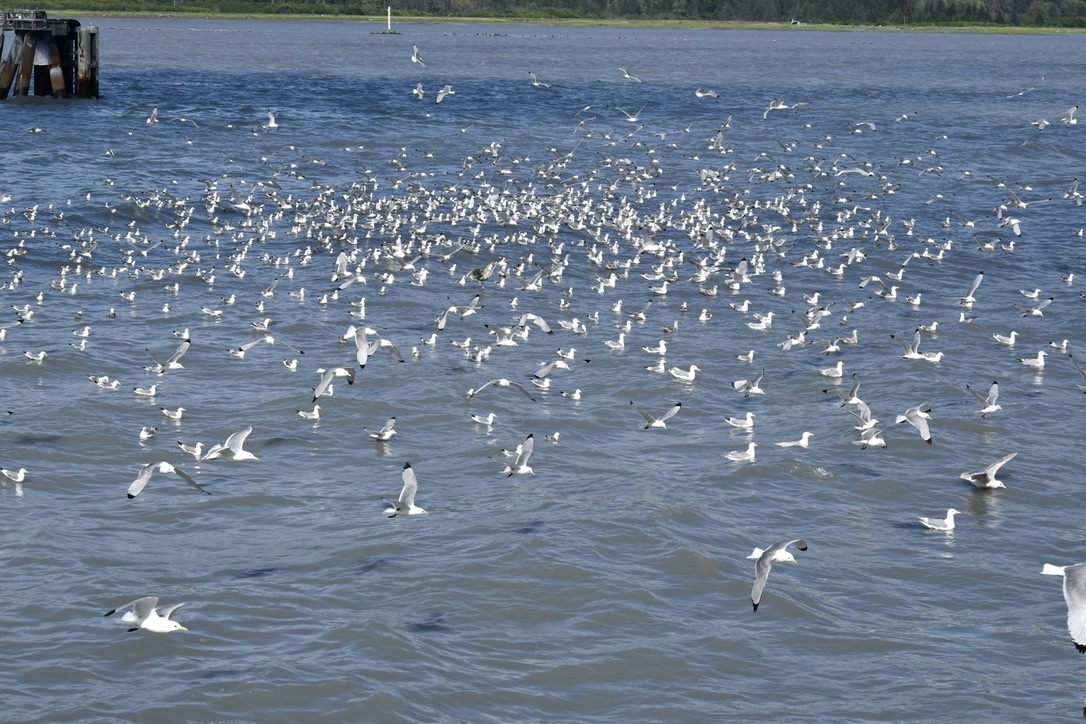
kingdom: Animalia
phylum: Chordata
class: Aves
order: Charadriiformes
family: Laridae
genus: Rissa
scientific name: Rissa tridactyla
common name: Black-legged kittiwake
